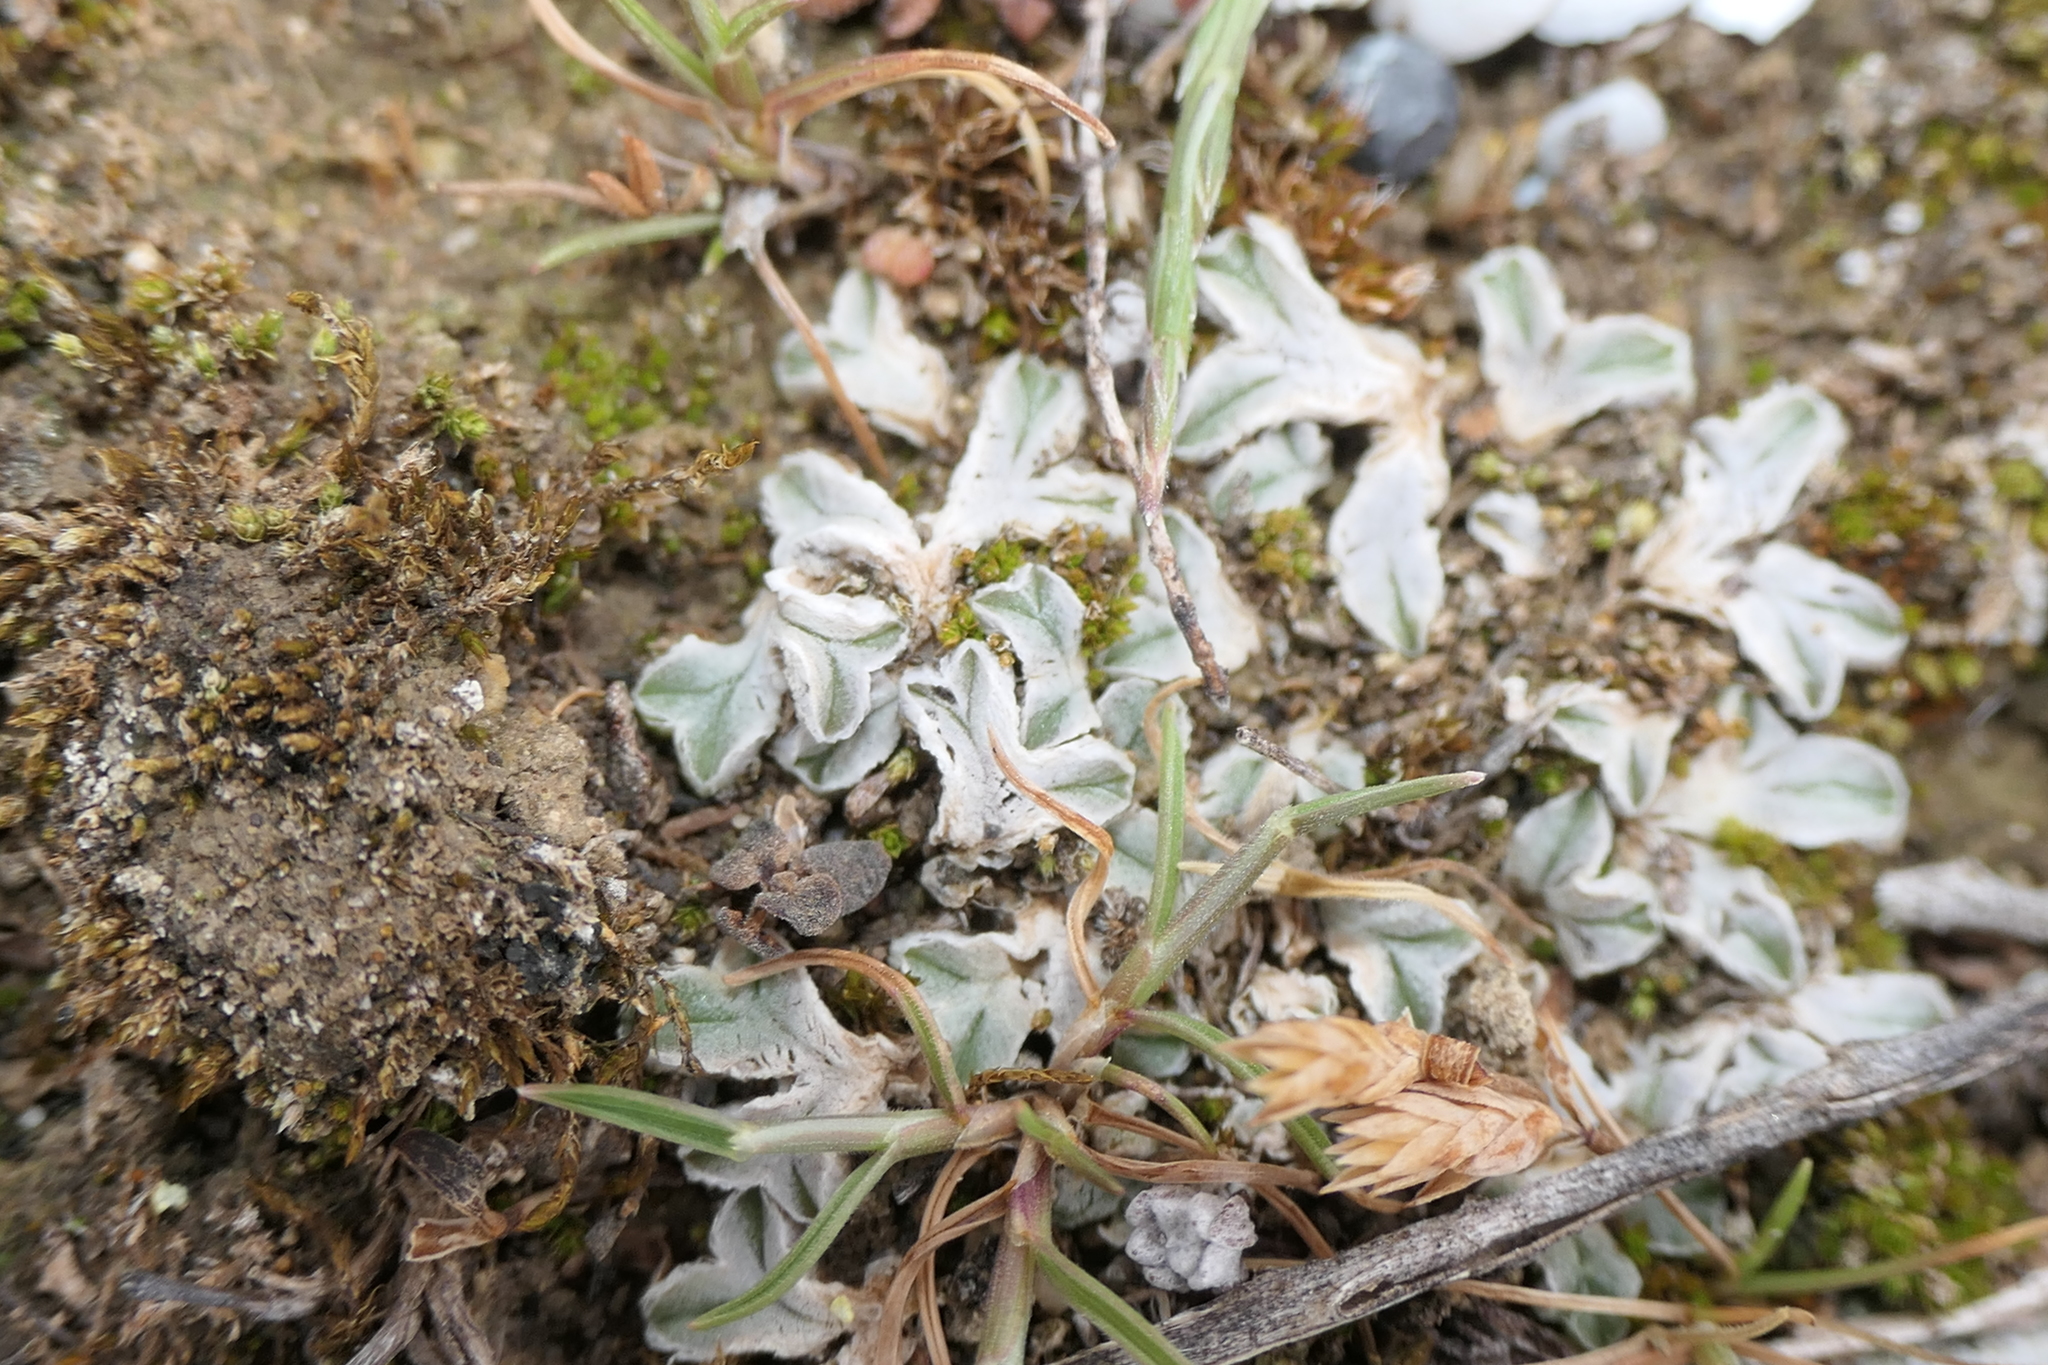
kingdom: Plantae
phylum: Marchantiophyta
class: Marchantiopsida
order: Marchantiales
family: Ricciaceae
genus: Riccia
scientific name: Riccia lamellosa
